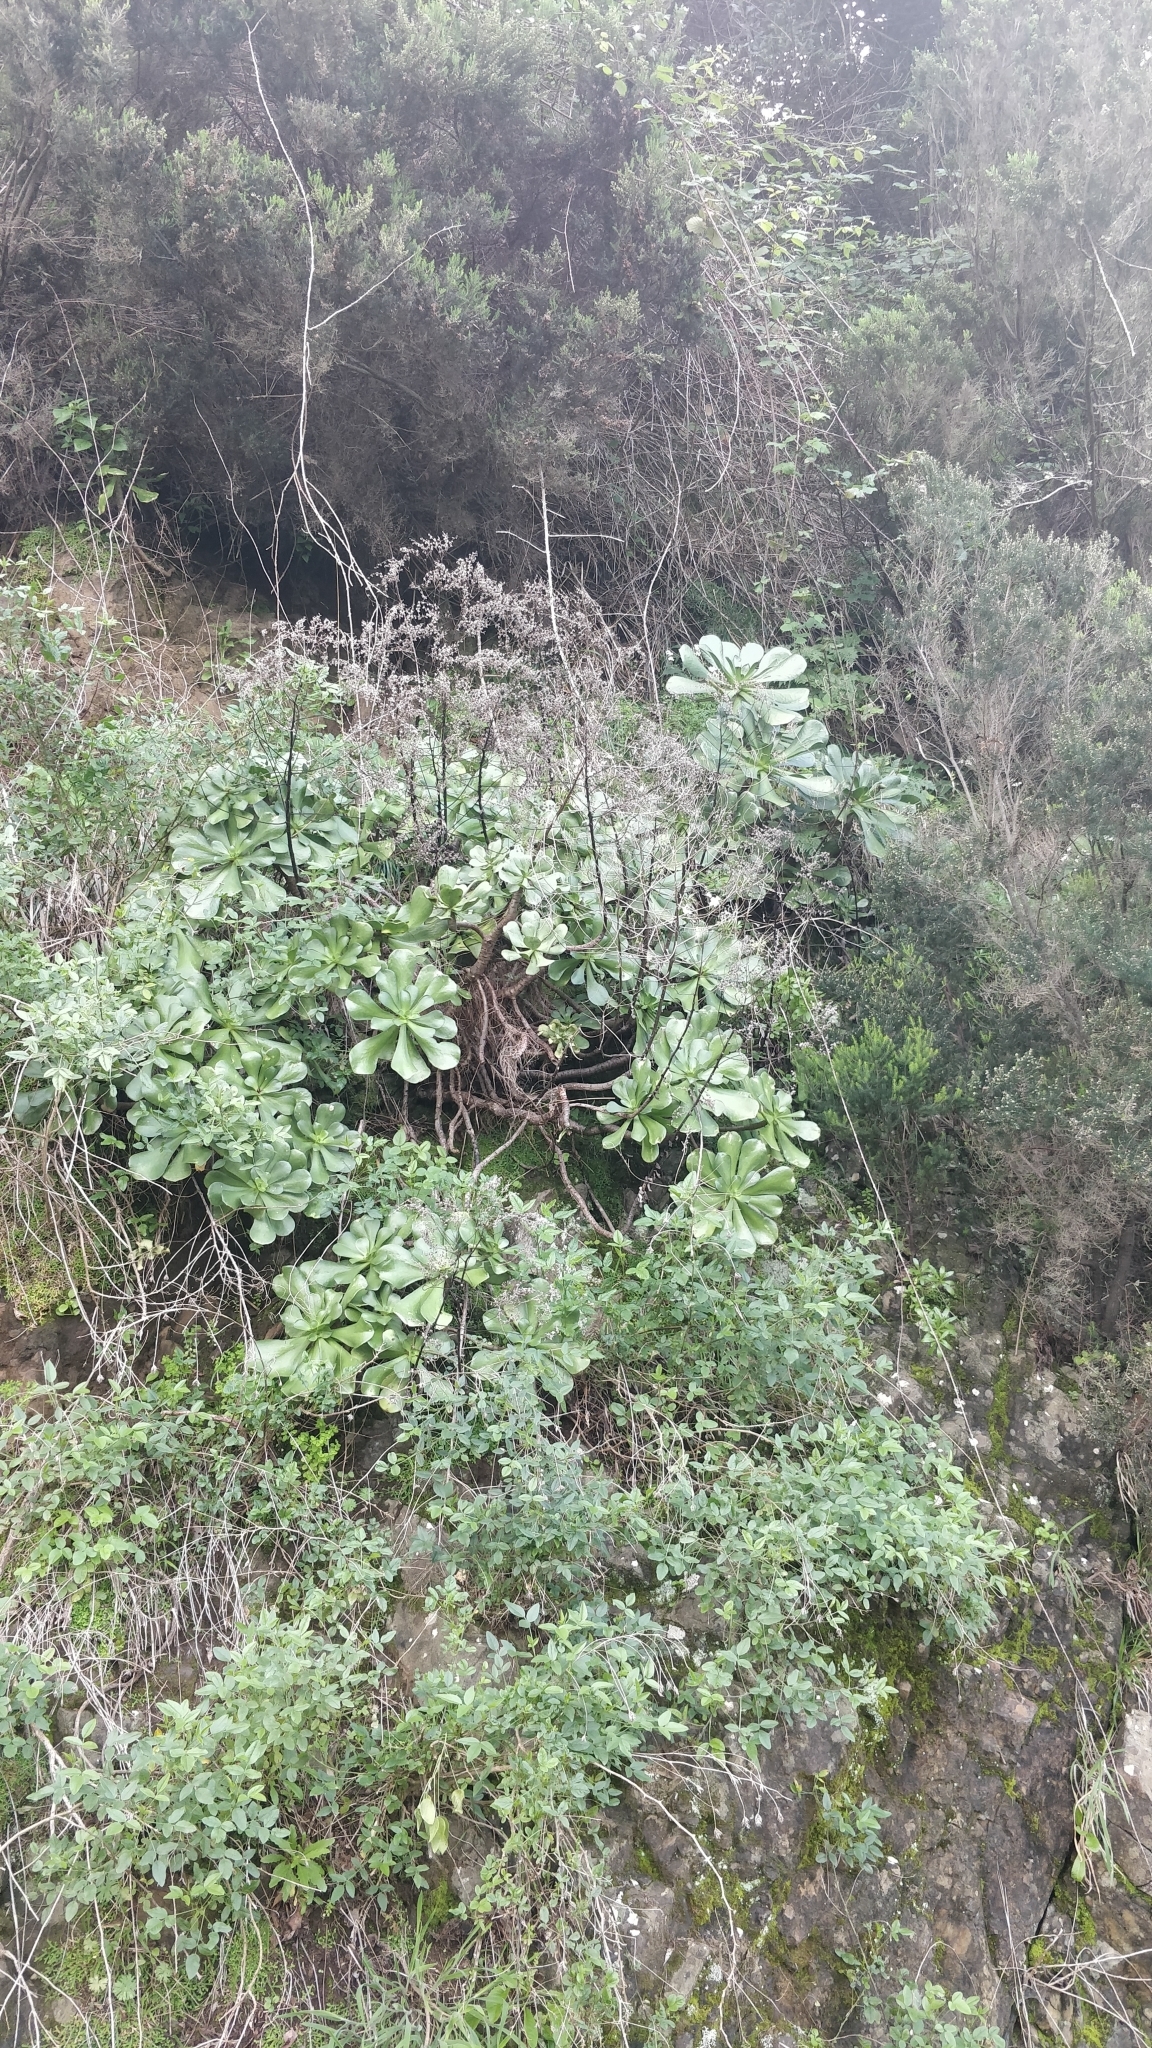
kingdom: Plantae
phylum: Tracheophyta
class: Magnoliopsida
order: Saxifragales
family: Crassulaceae
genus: Aeonium
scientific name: Aeonium glutinosum
